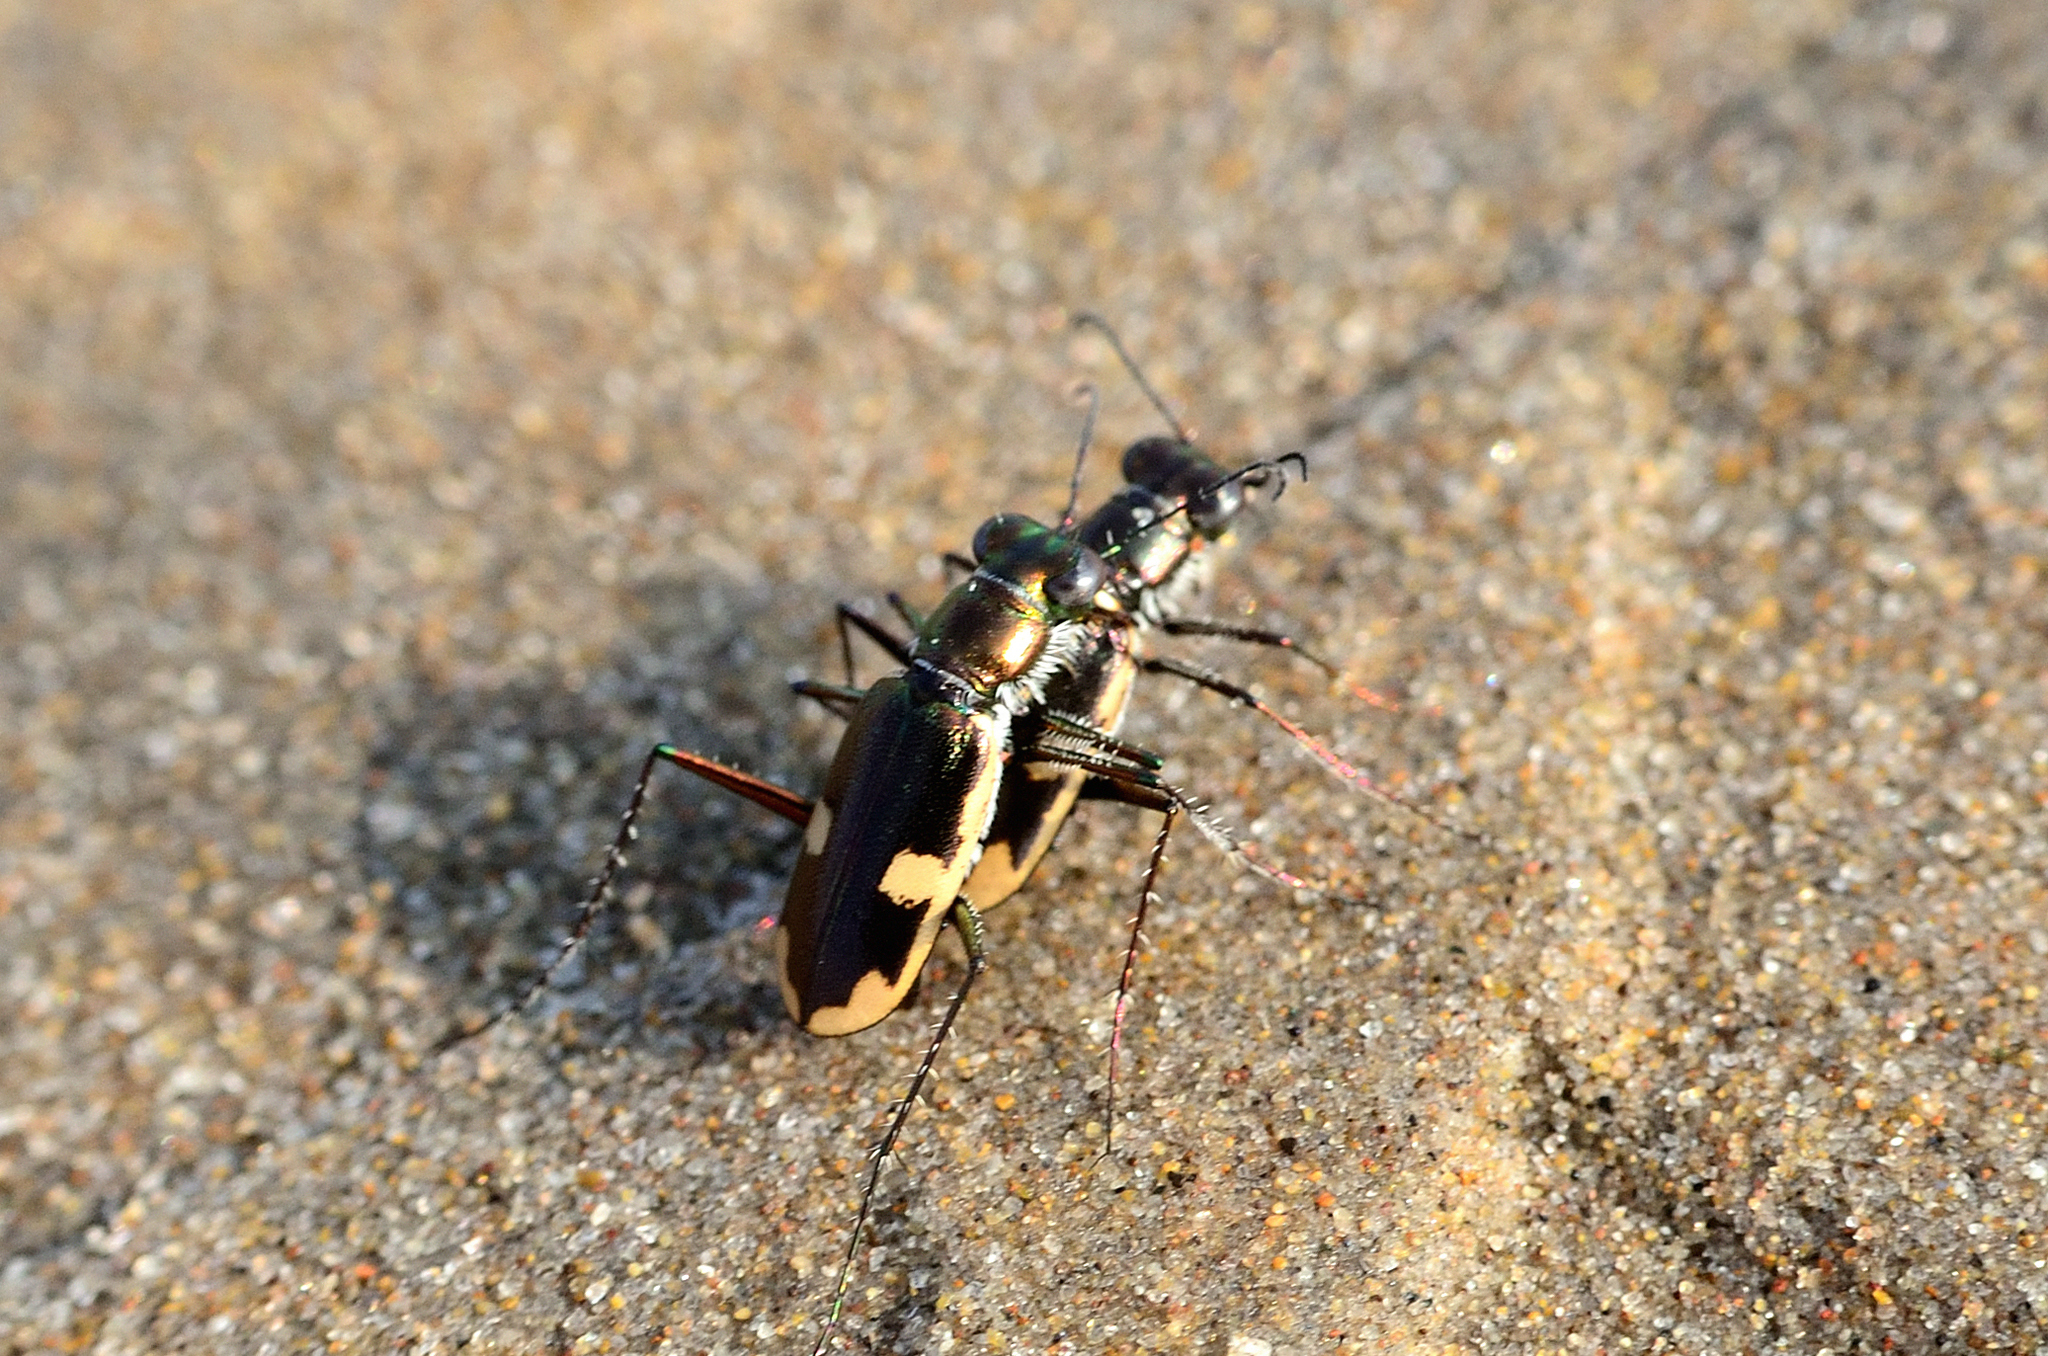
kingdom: Animalia
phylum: Arthropoda
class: Insecta
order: Coleoptera
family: Carabidae
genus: Hypaetha
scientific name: Hypaetha biramosa
